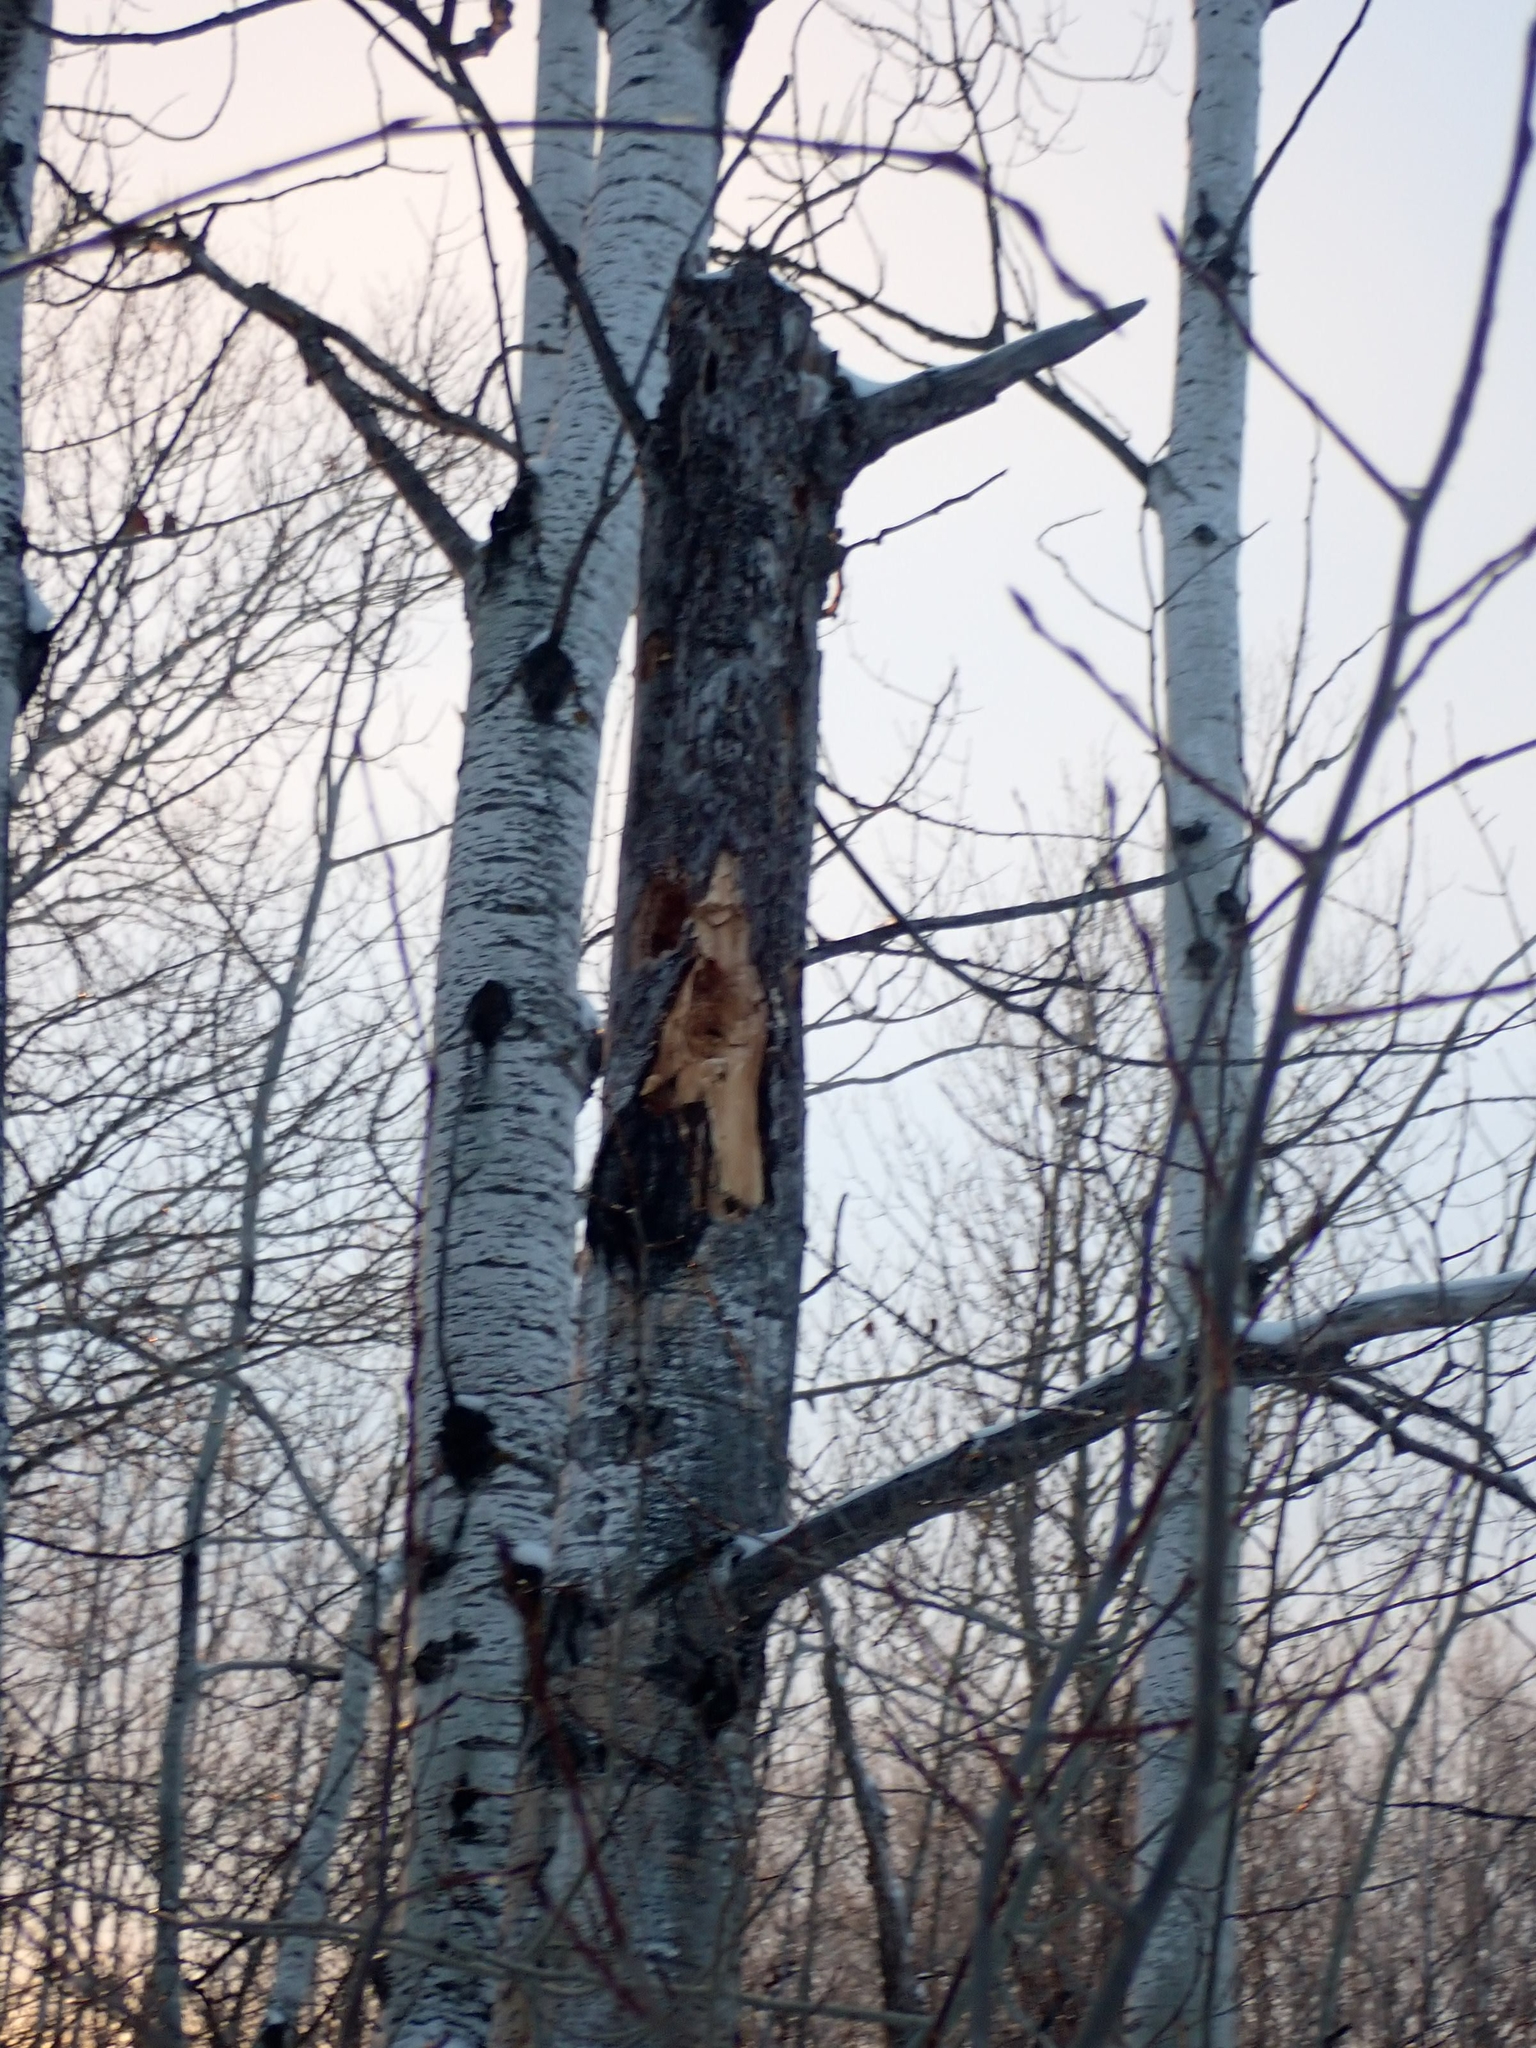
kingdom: Animalia
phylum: Chordata
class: Aves
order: Piciformes
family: Picidae
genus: Dryocopus
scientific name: Dryocopus pileatus
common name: Pileated woodpecker
